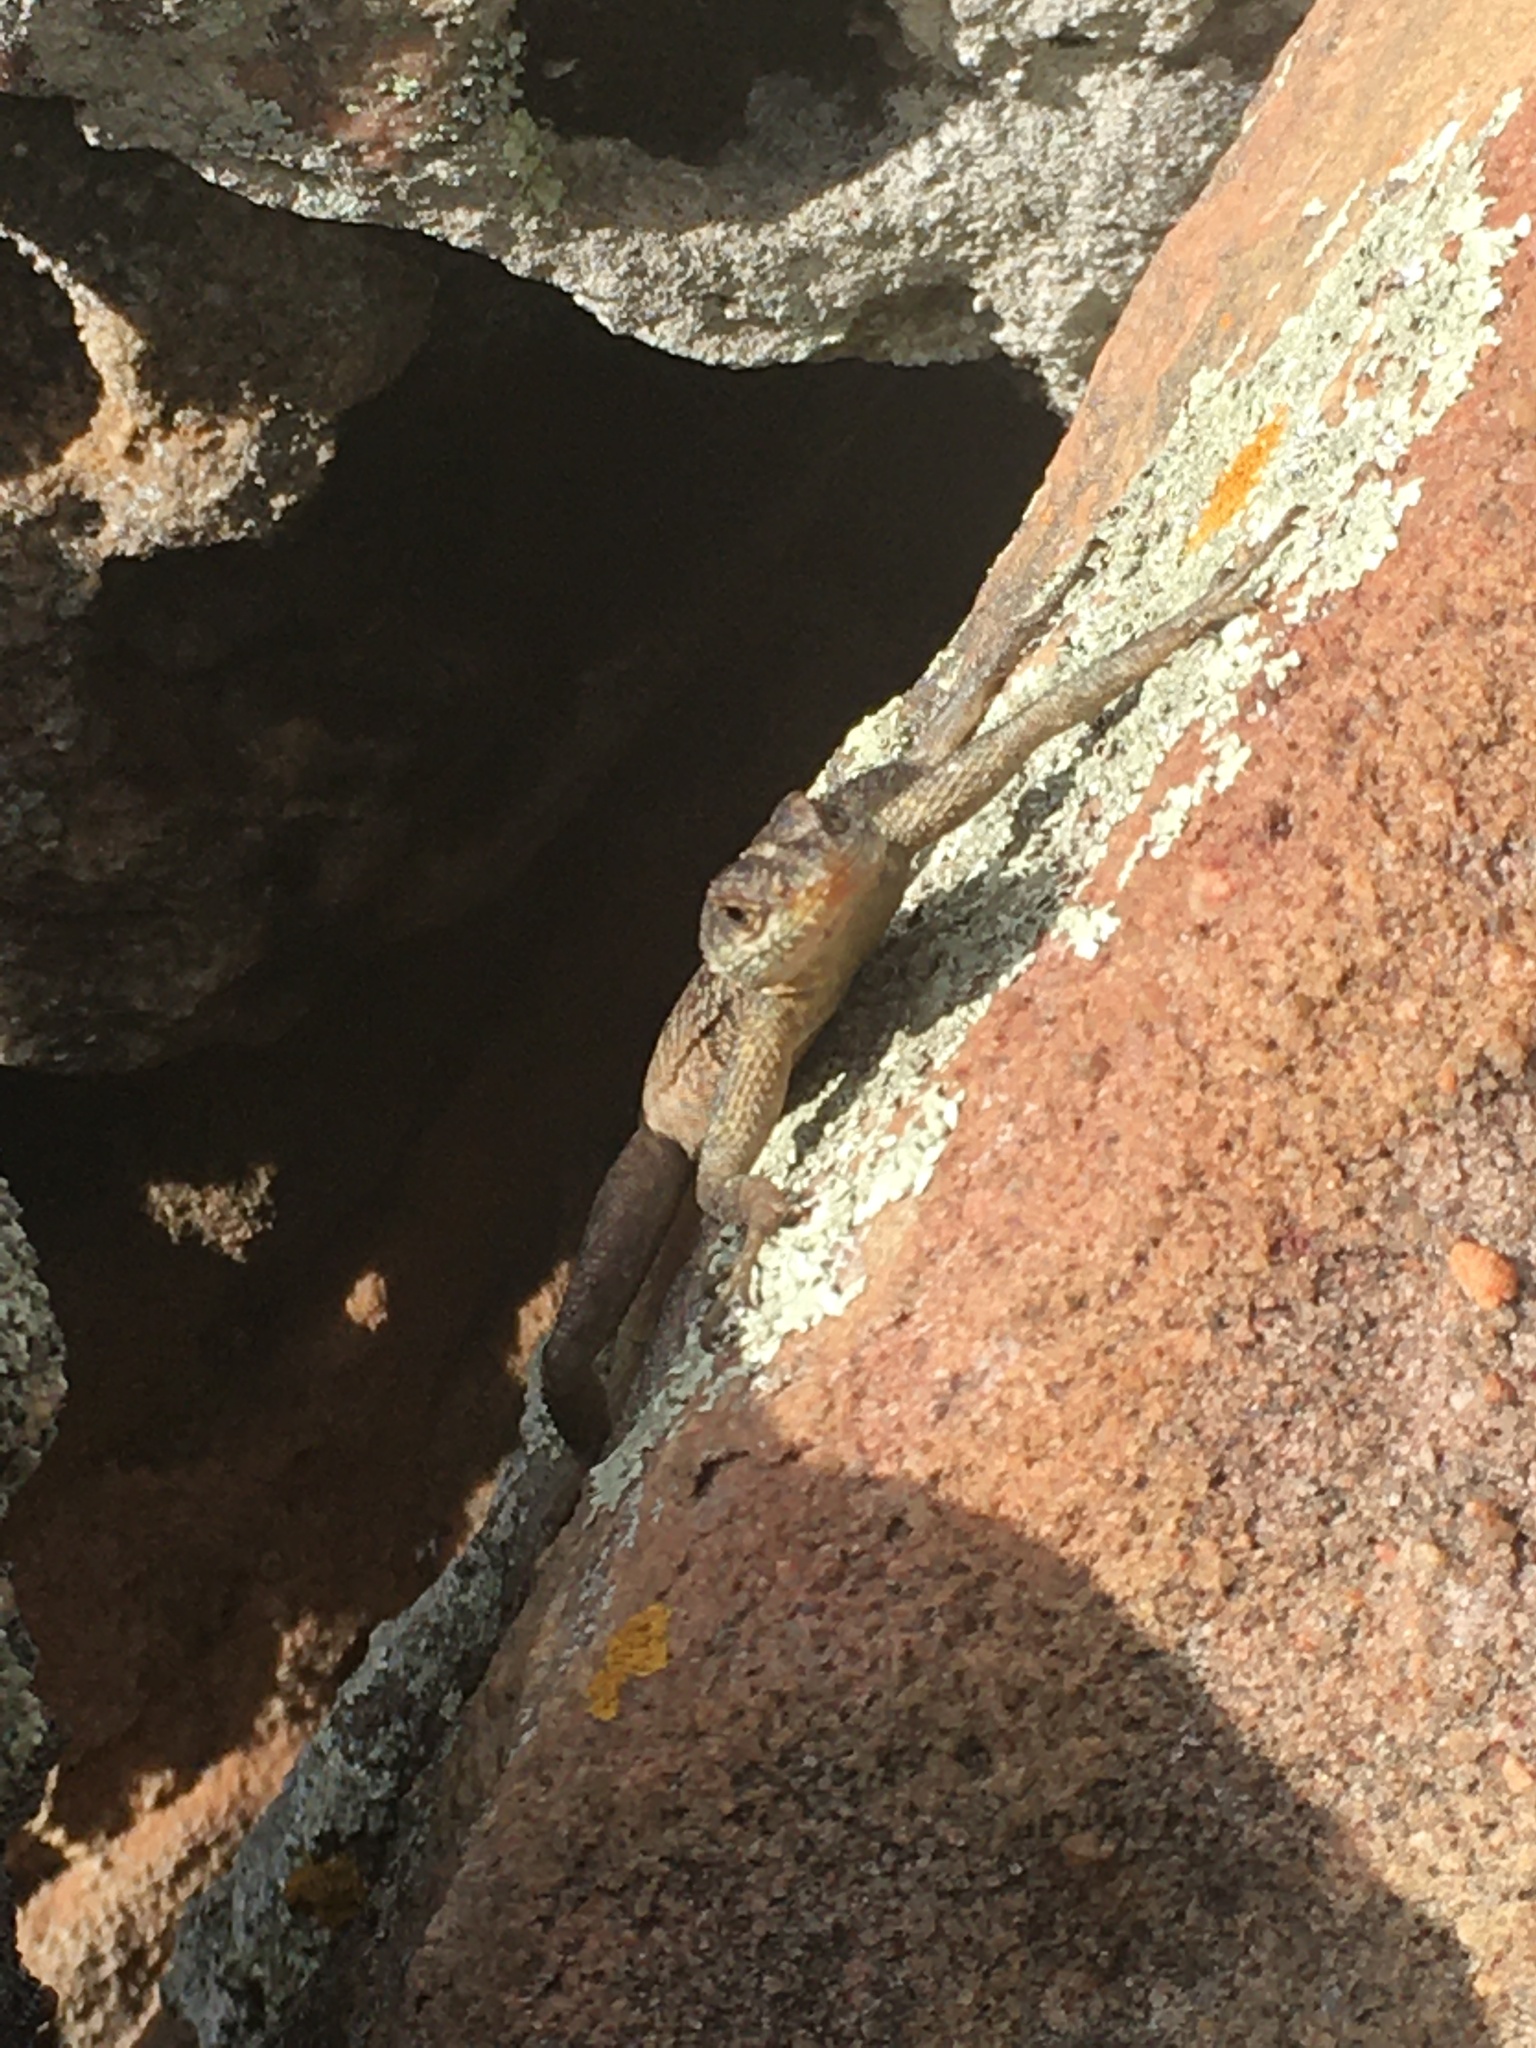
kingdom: Animalia
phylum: Chordata
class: Squamata
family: Tropiduridae
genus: Tropidurus
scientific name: Tropidurus semitaeniatus
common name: Striped lava lizard
